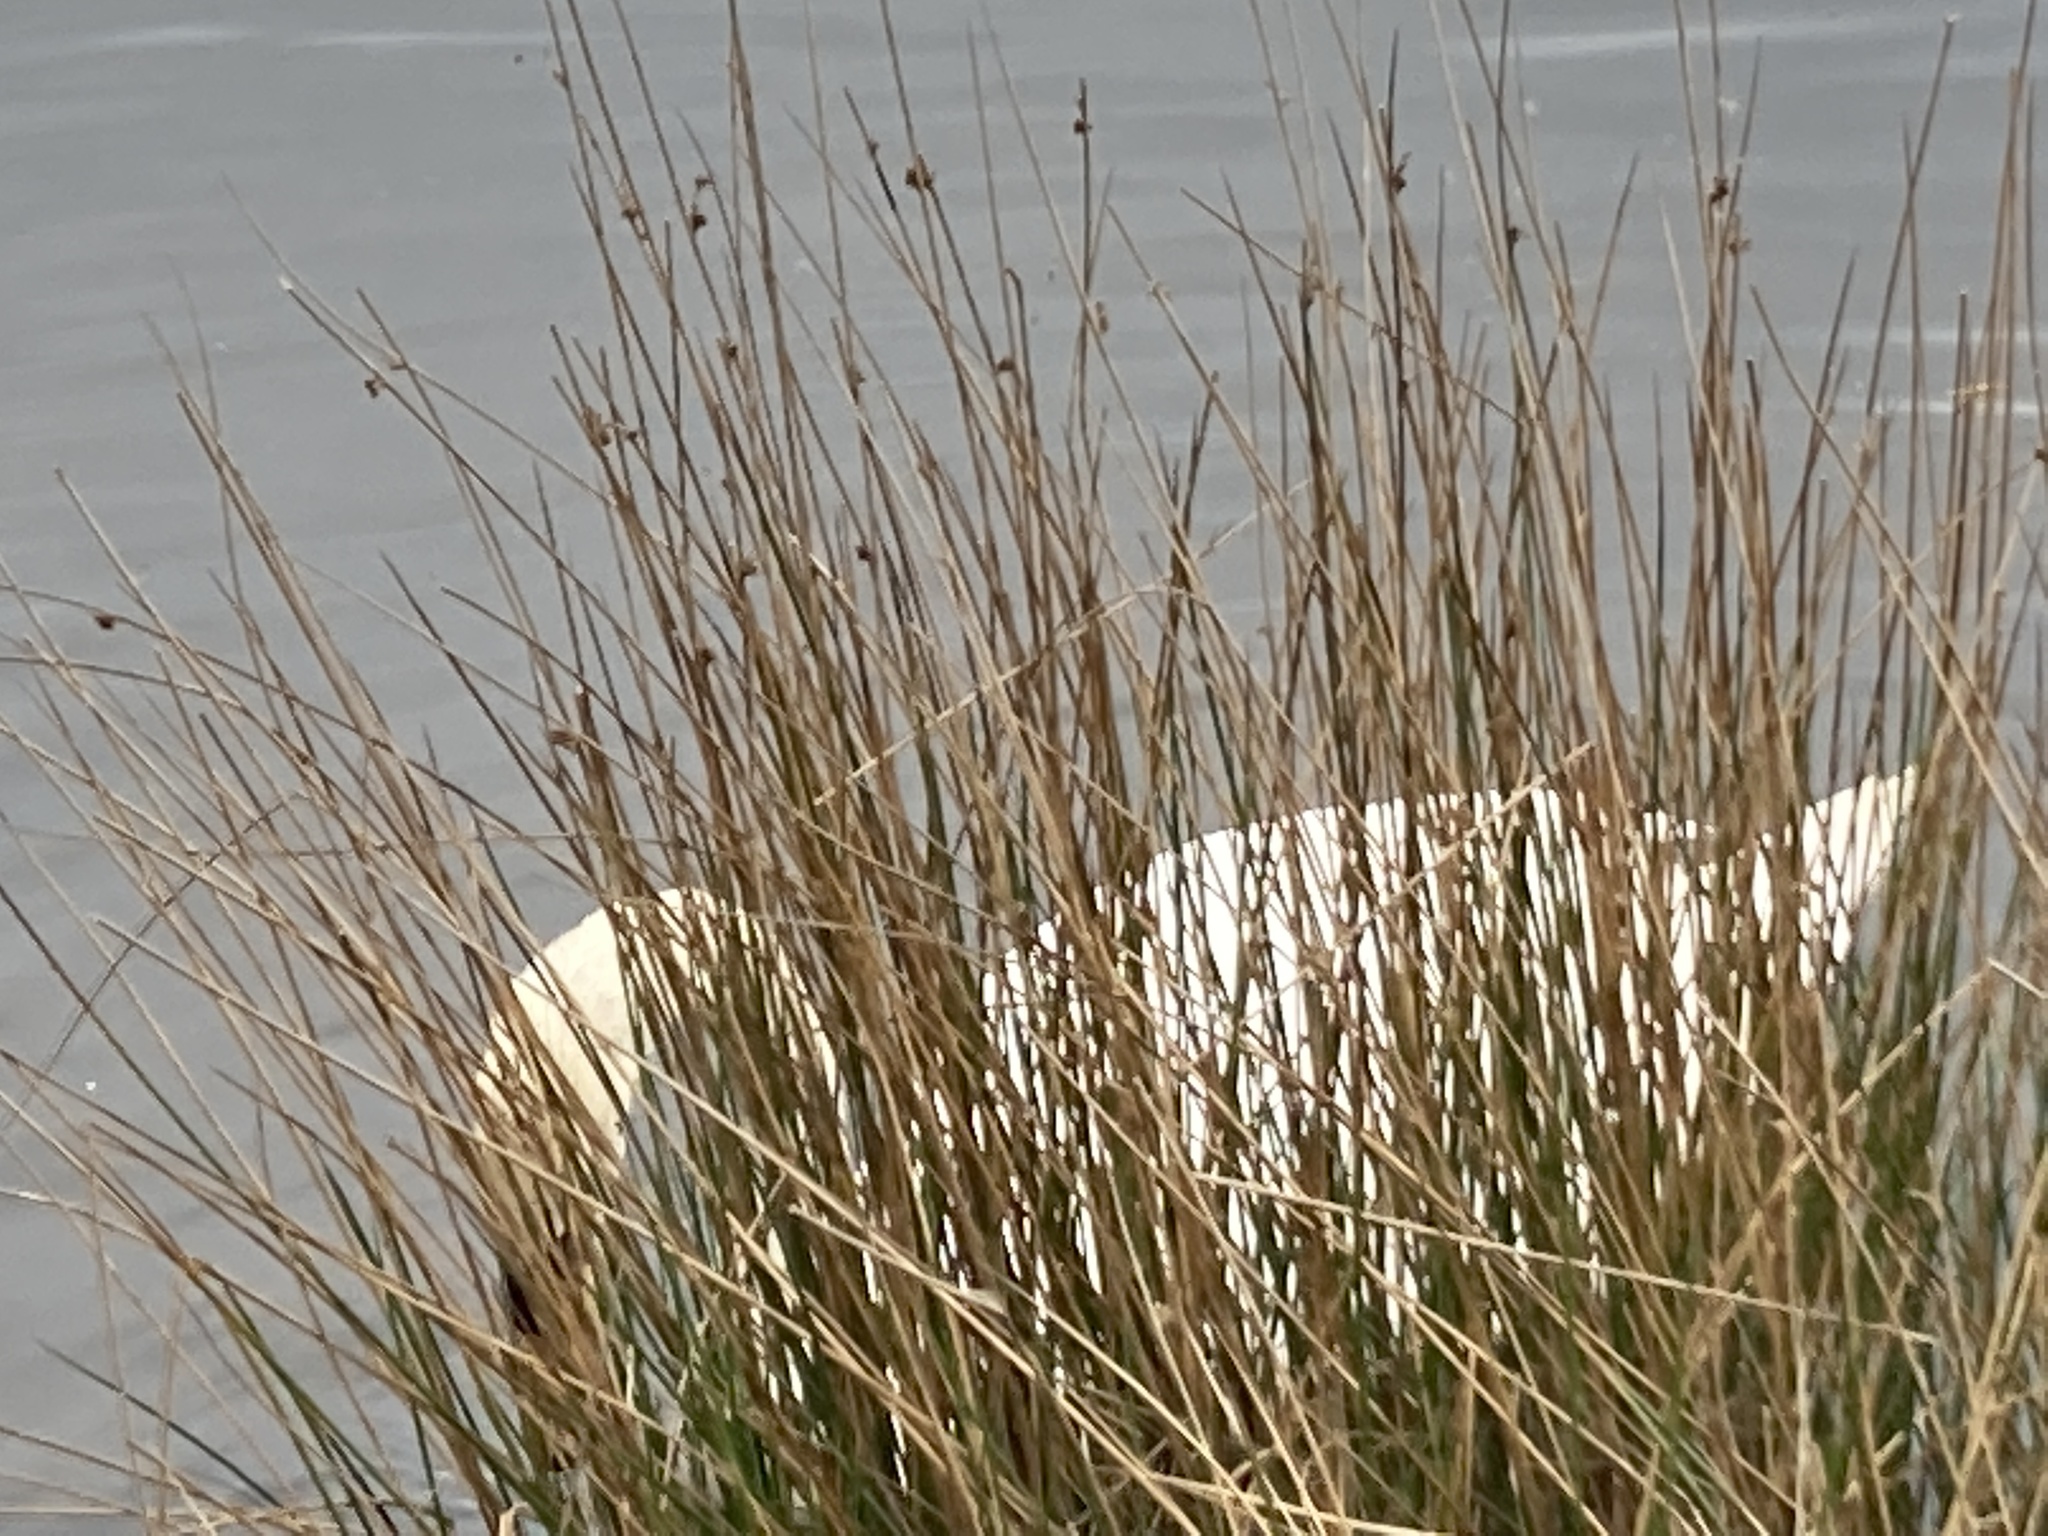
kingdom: Animalia
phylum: Chordata
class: Aves
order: Anseriformes
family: Anatidae
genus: Cygnus
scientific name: Cygnus olor
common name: Mute swan
